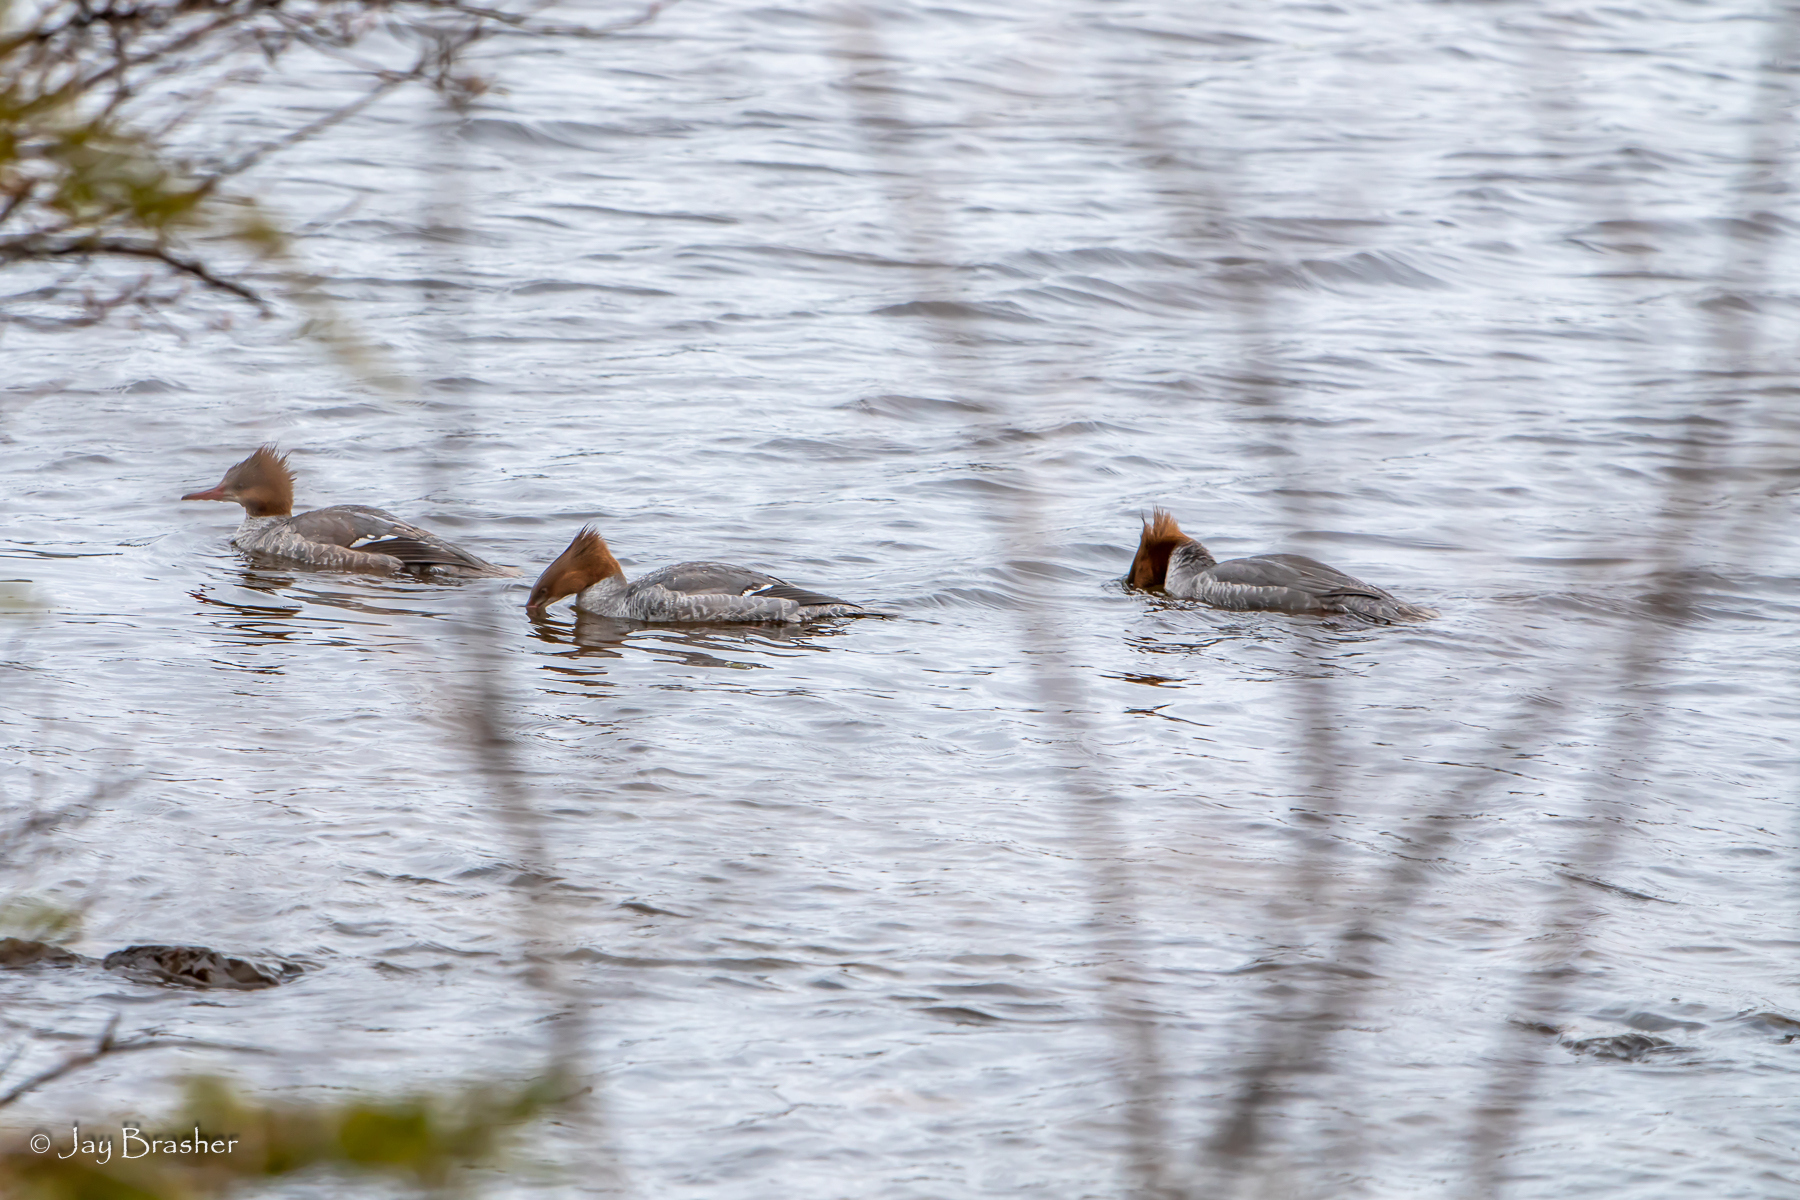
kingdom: Animalia
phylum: Chordata
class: Aves
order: Anseriformes
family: Anatidae
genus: Mergus
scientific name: Mergus merganser
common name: Common merganser
